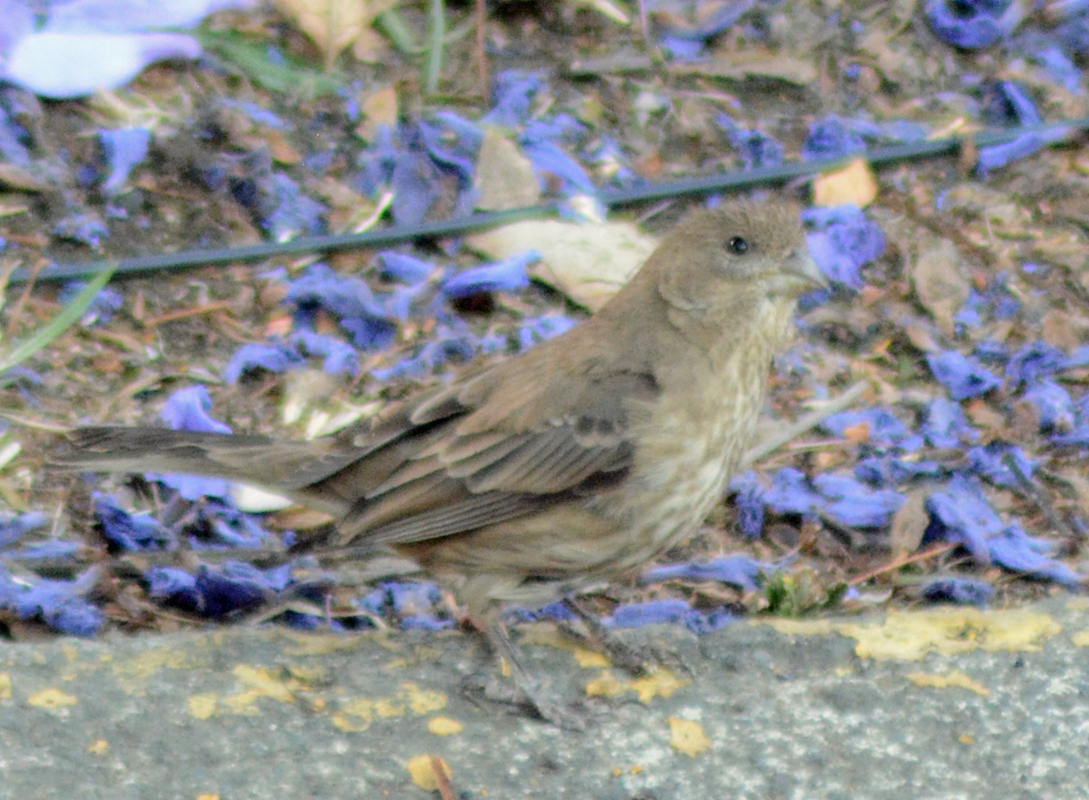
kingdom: Animalia
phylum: Chordata
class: Aves
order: Passeriformes
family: Fringillidae
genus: Haemorhous
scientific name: Haemorhous mexicanus
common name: House finch
